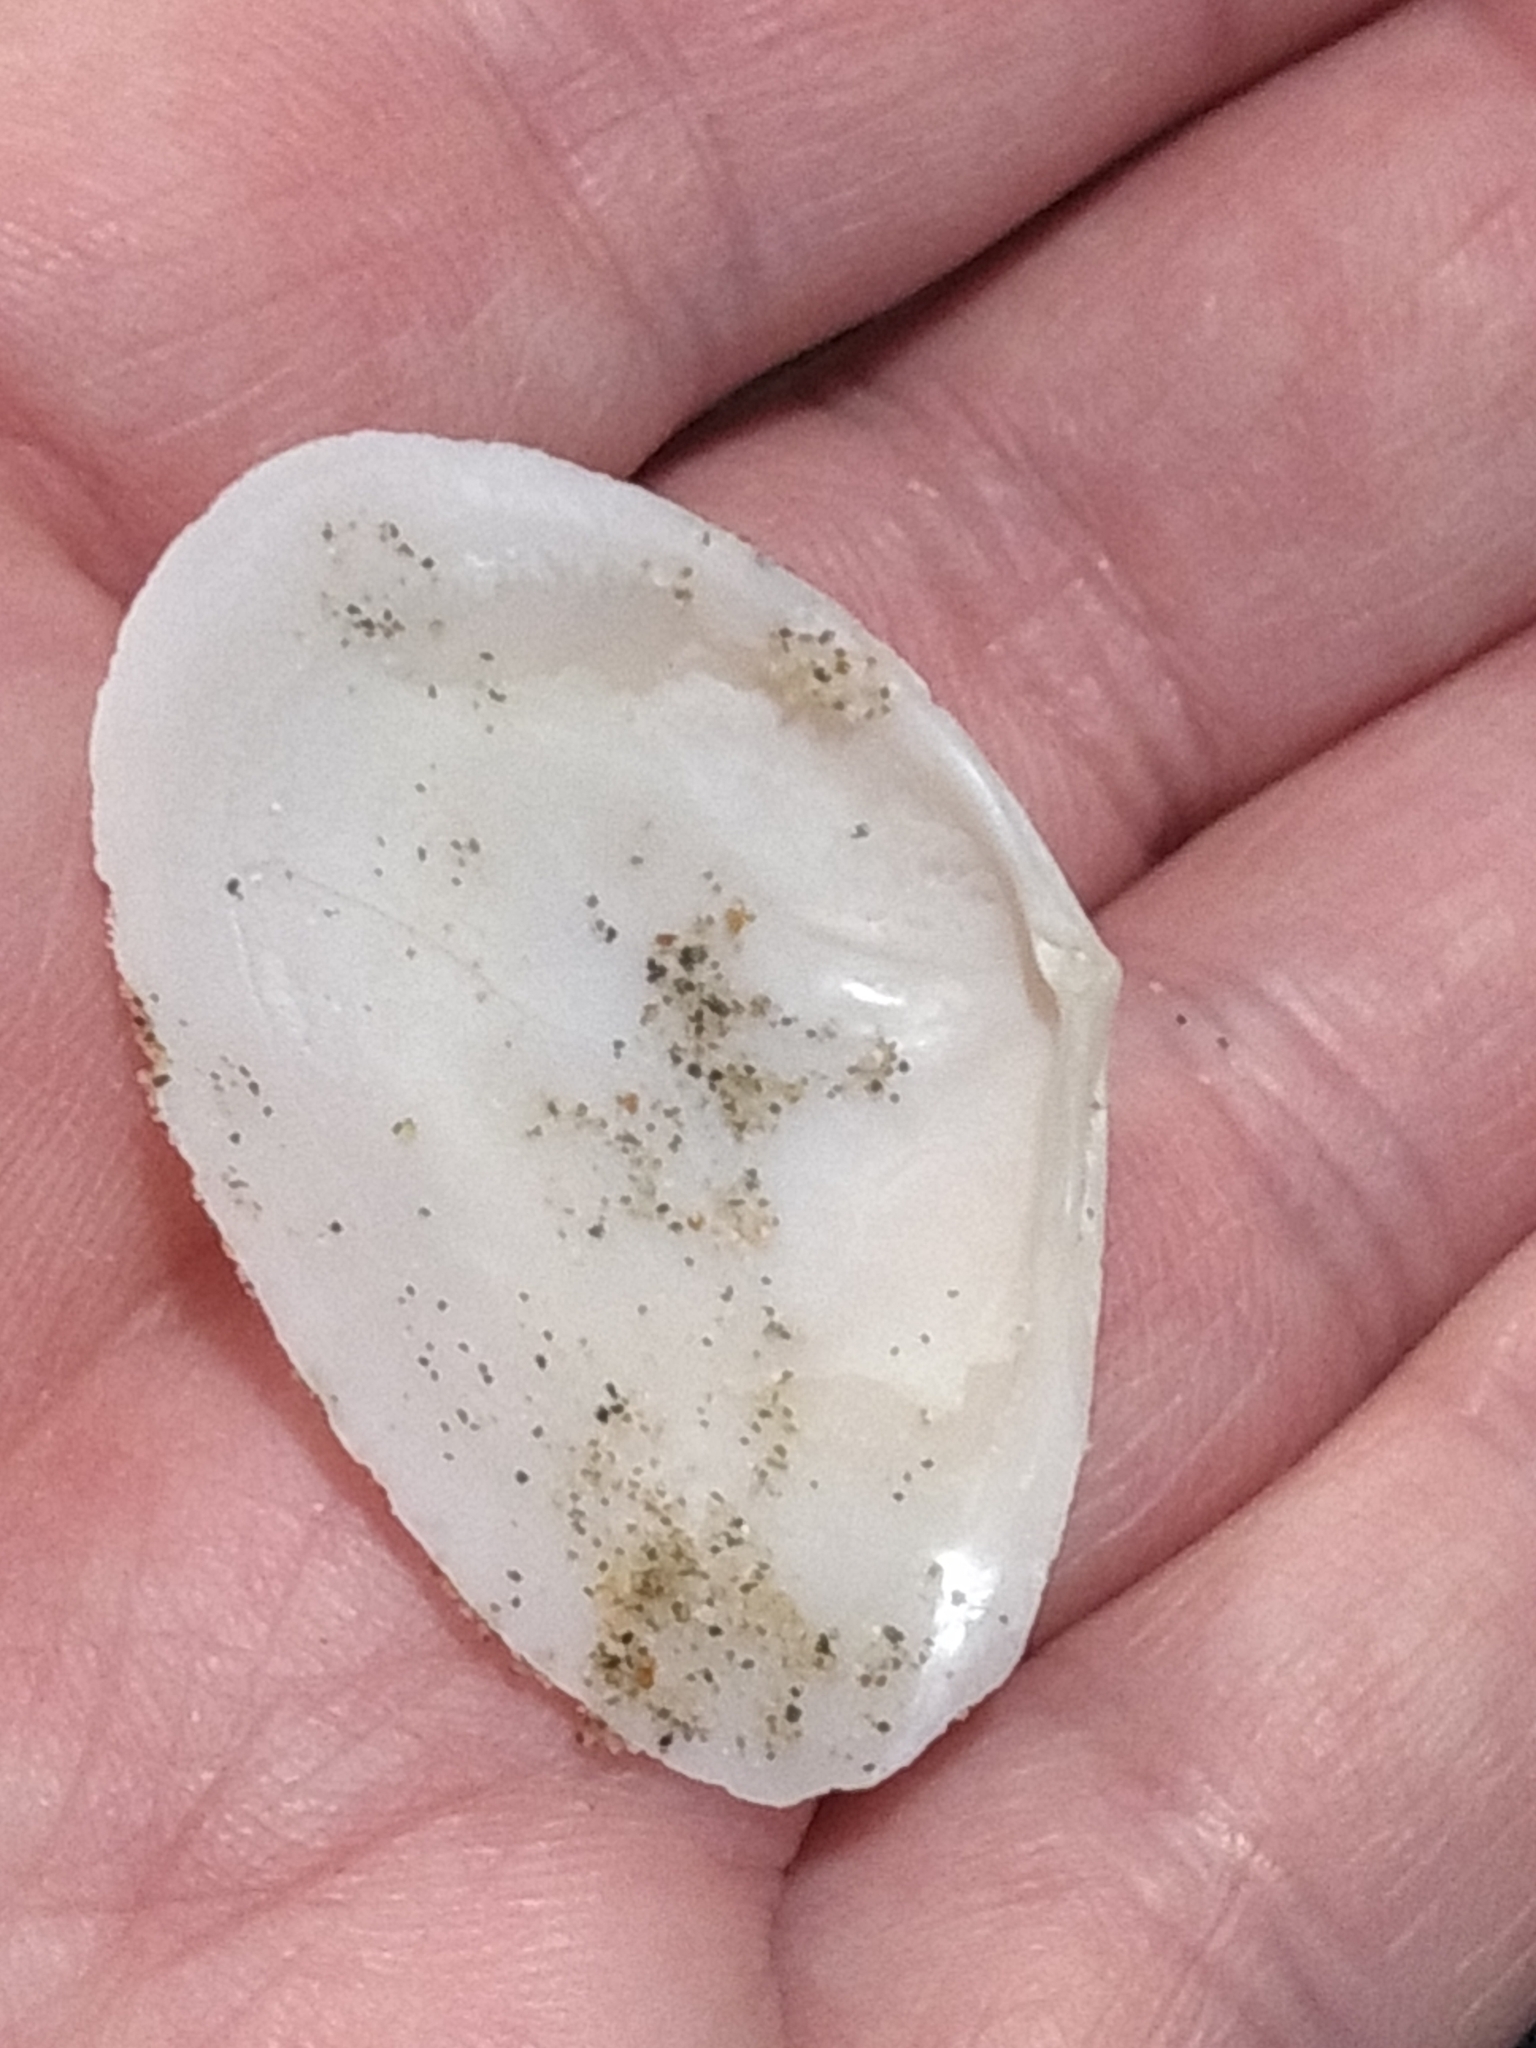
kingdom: Animalia
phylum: Mollusca
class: Bivalvia
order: Cardiida
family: Tellinidae
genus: Macoma
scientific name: Macoma nasuta
